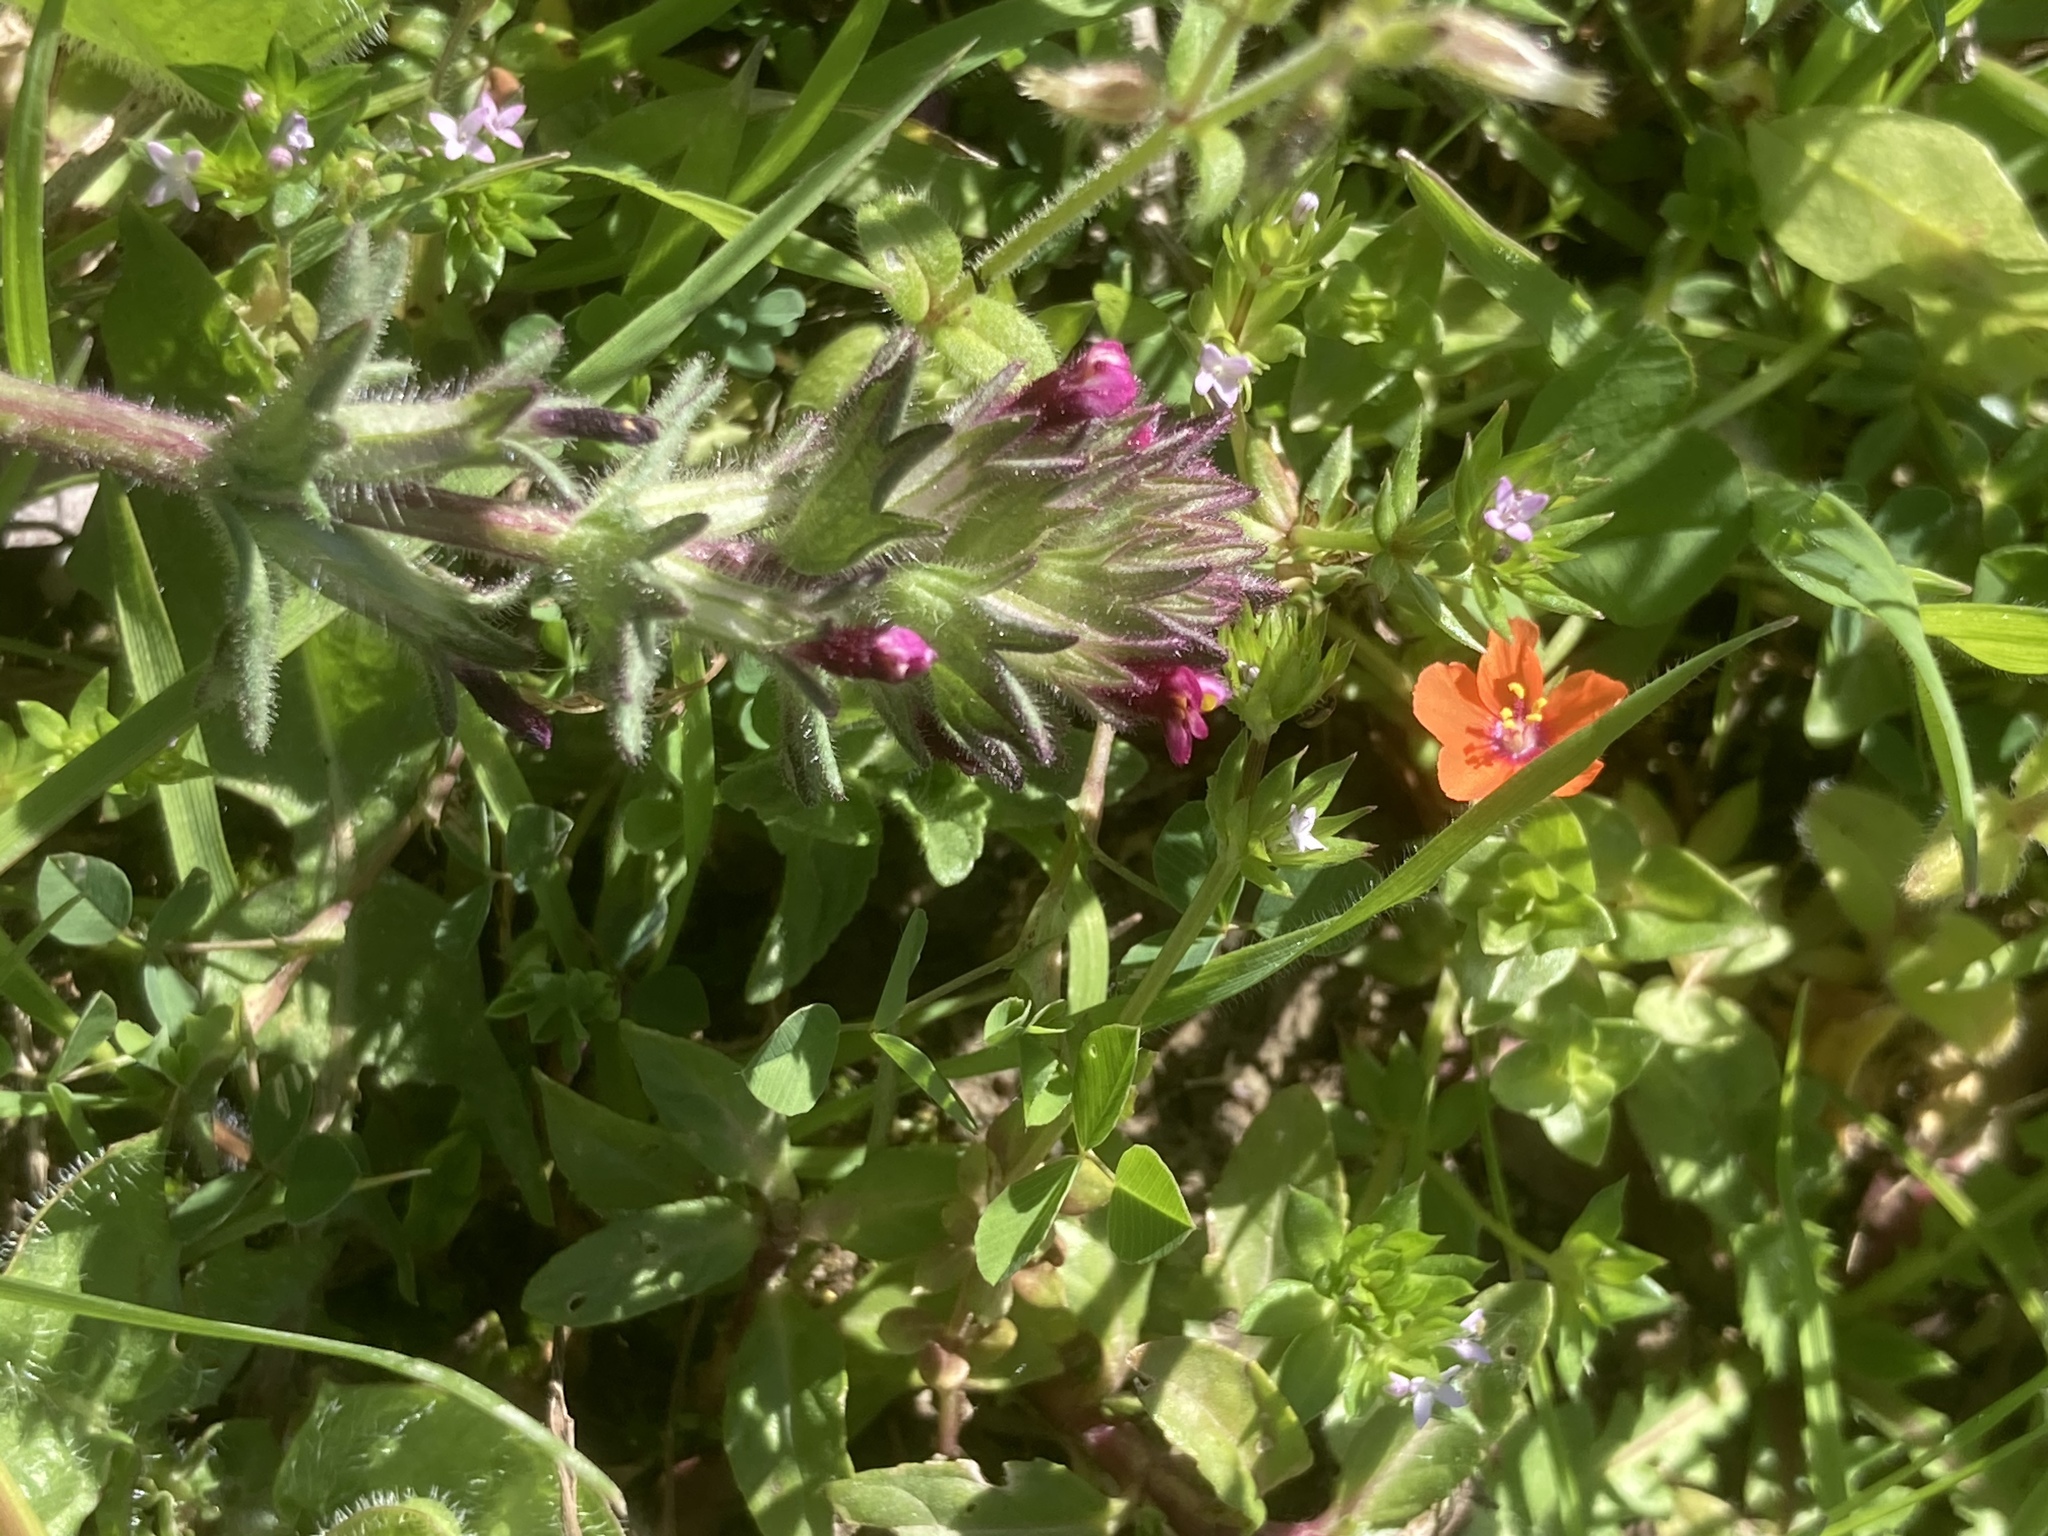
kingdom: Plantae
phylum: Tracheophyta
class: Magnoliopsida
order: Gentianales
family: Rubiaceae
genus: Sherardia
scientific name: Sherardia arvensis
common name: Field madder
